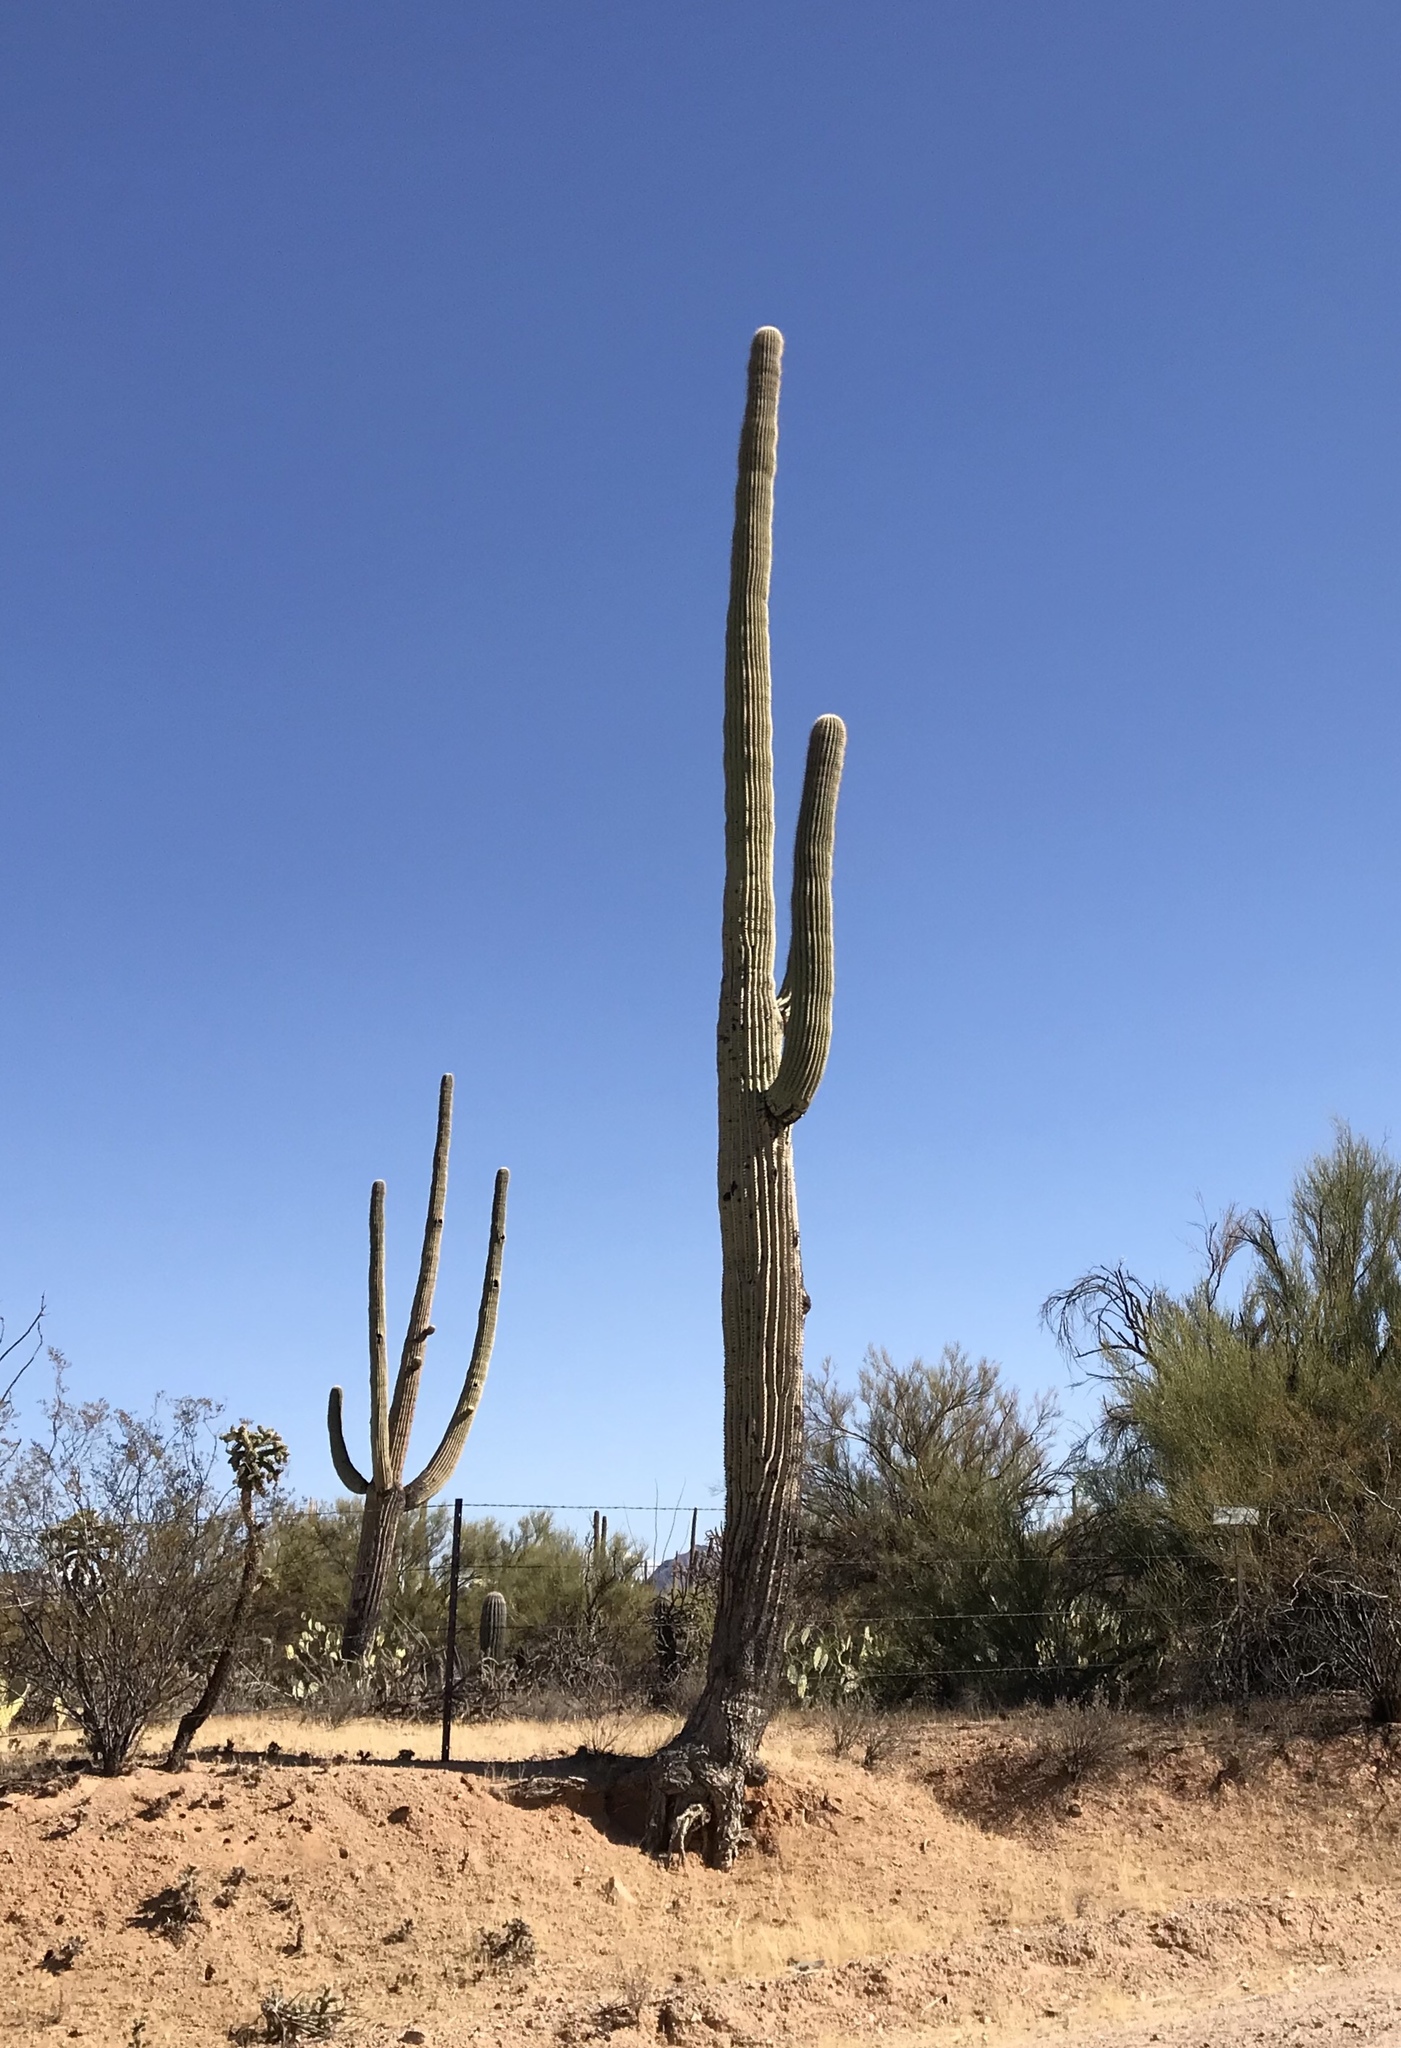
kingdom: Plantae
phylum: Tracheophyta
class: Magnoliopsida
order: Caryophyllales
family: Cactaceae
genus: Carnegiea
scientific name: Carnegiea gigantea
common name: Saguaro
